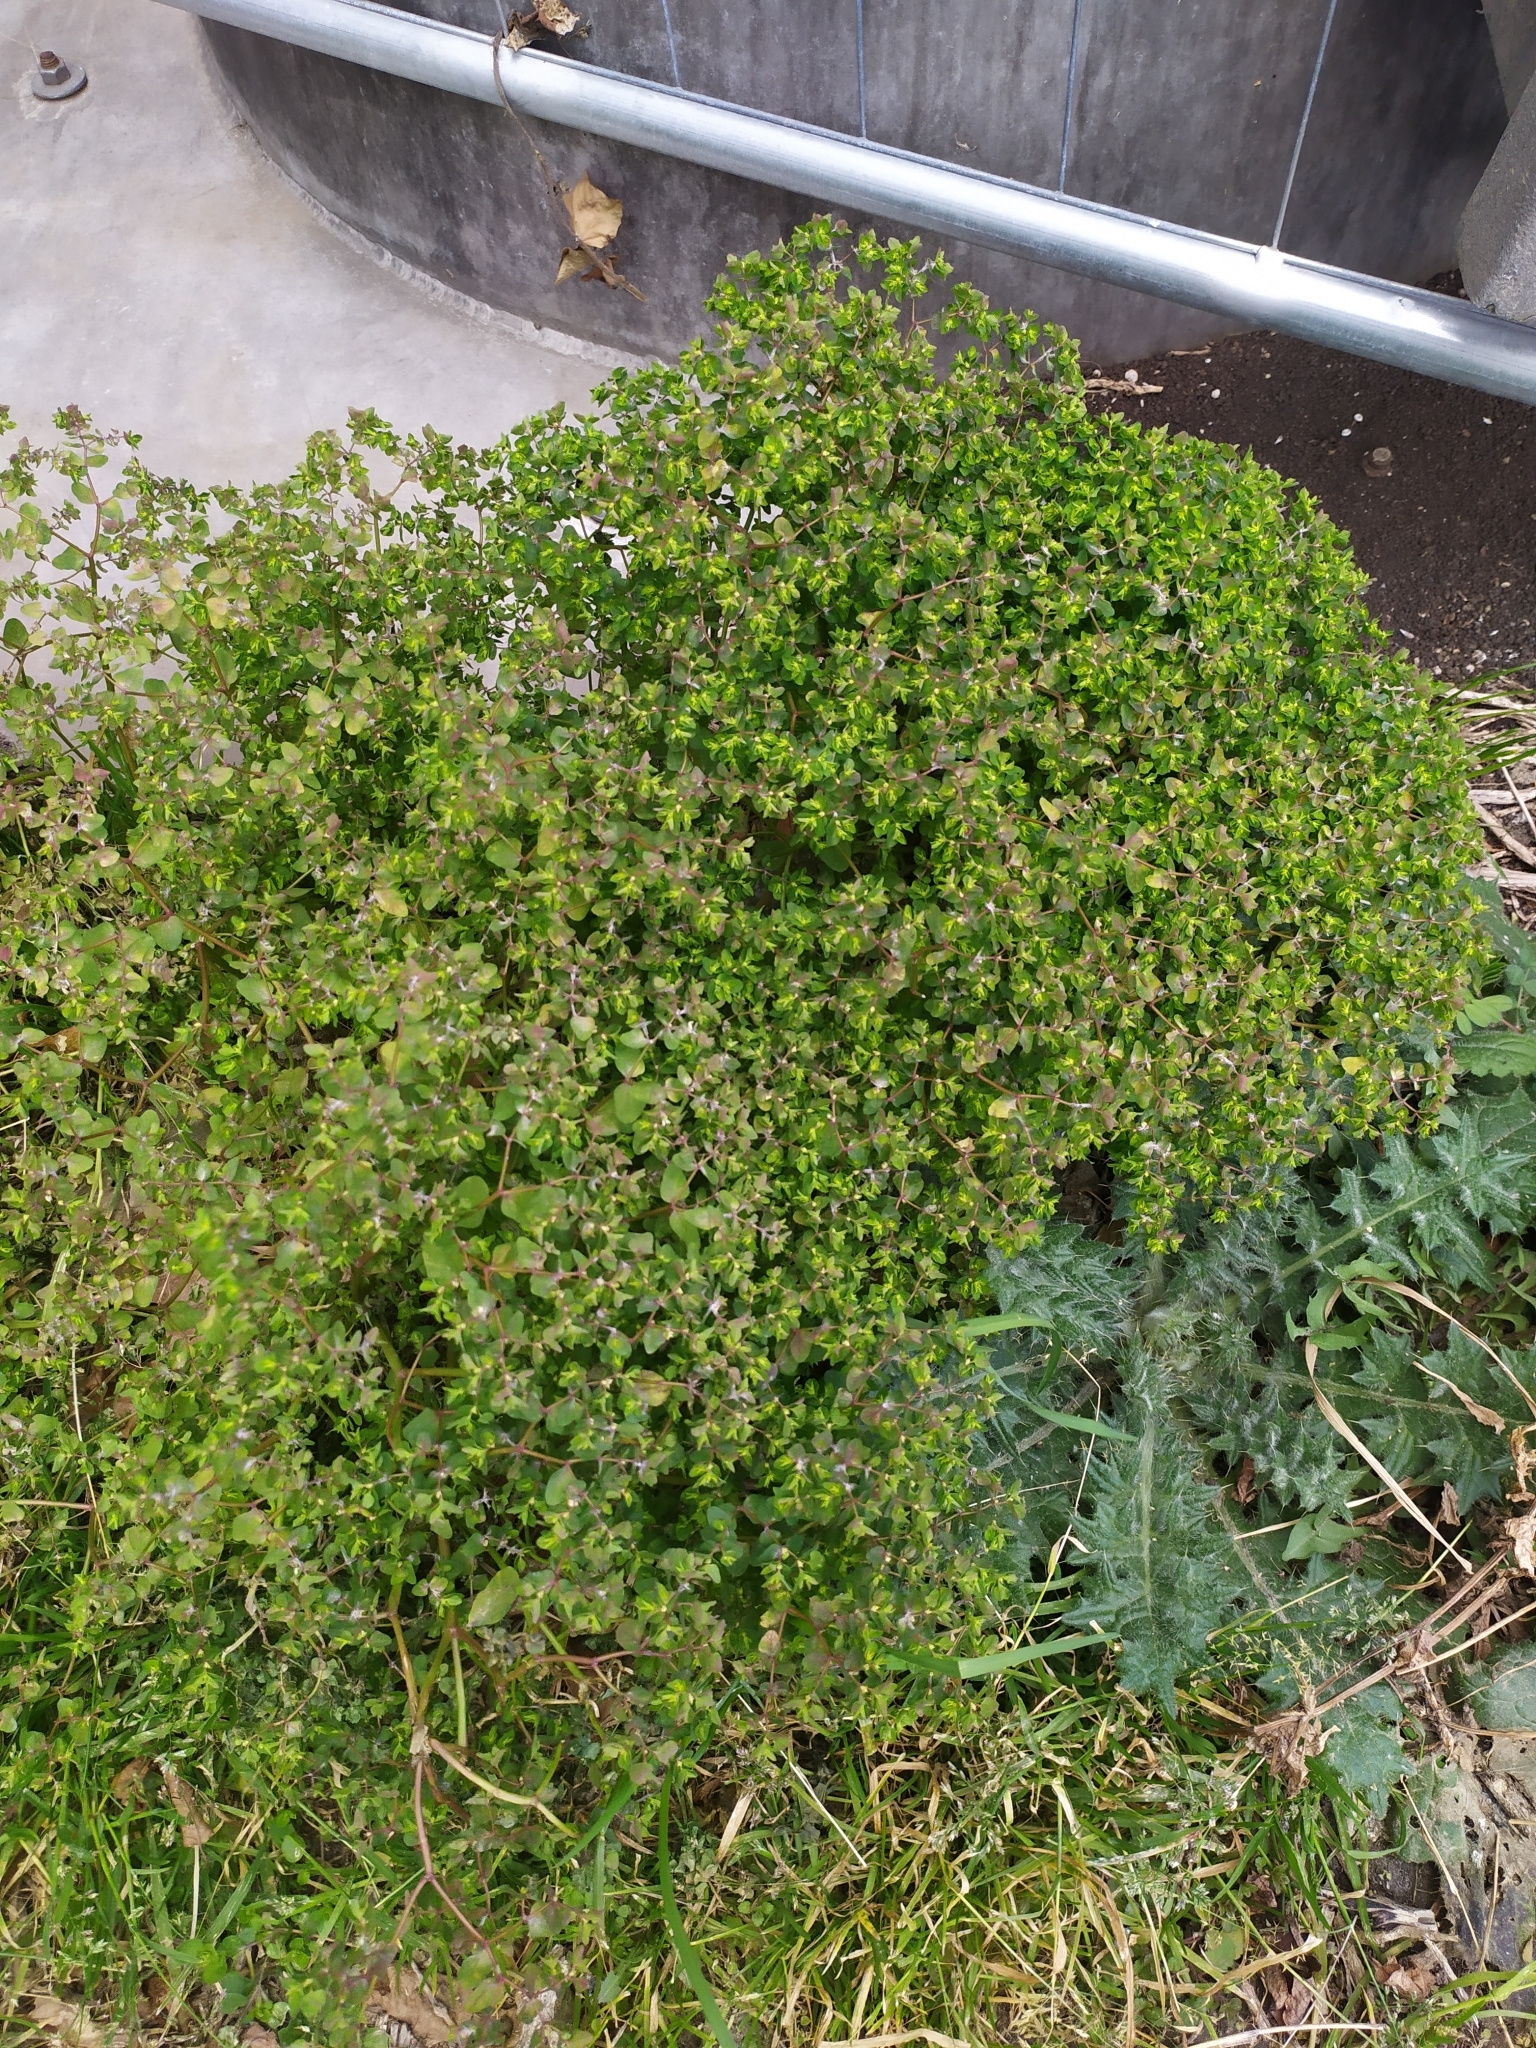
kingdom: Plantae
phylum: Tracheophyta
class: Magnoliopsida
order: Malpighiales
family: Euphorbiaceae
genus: Euphorbia
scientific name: Euphorbia peplus
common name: Petty spurge
